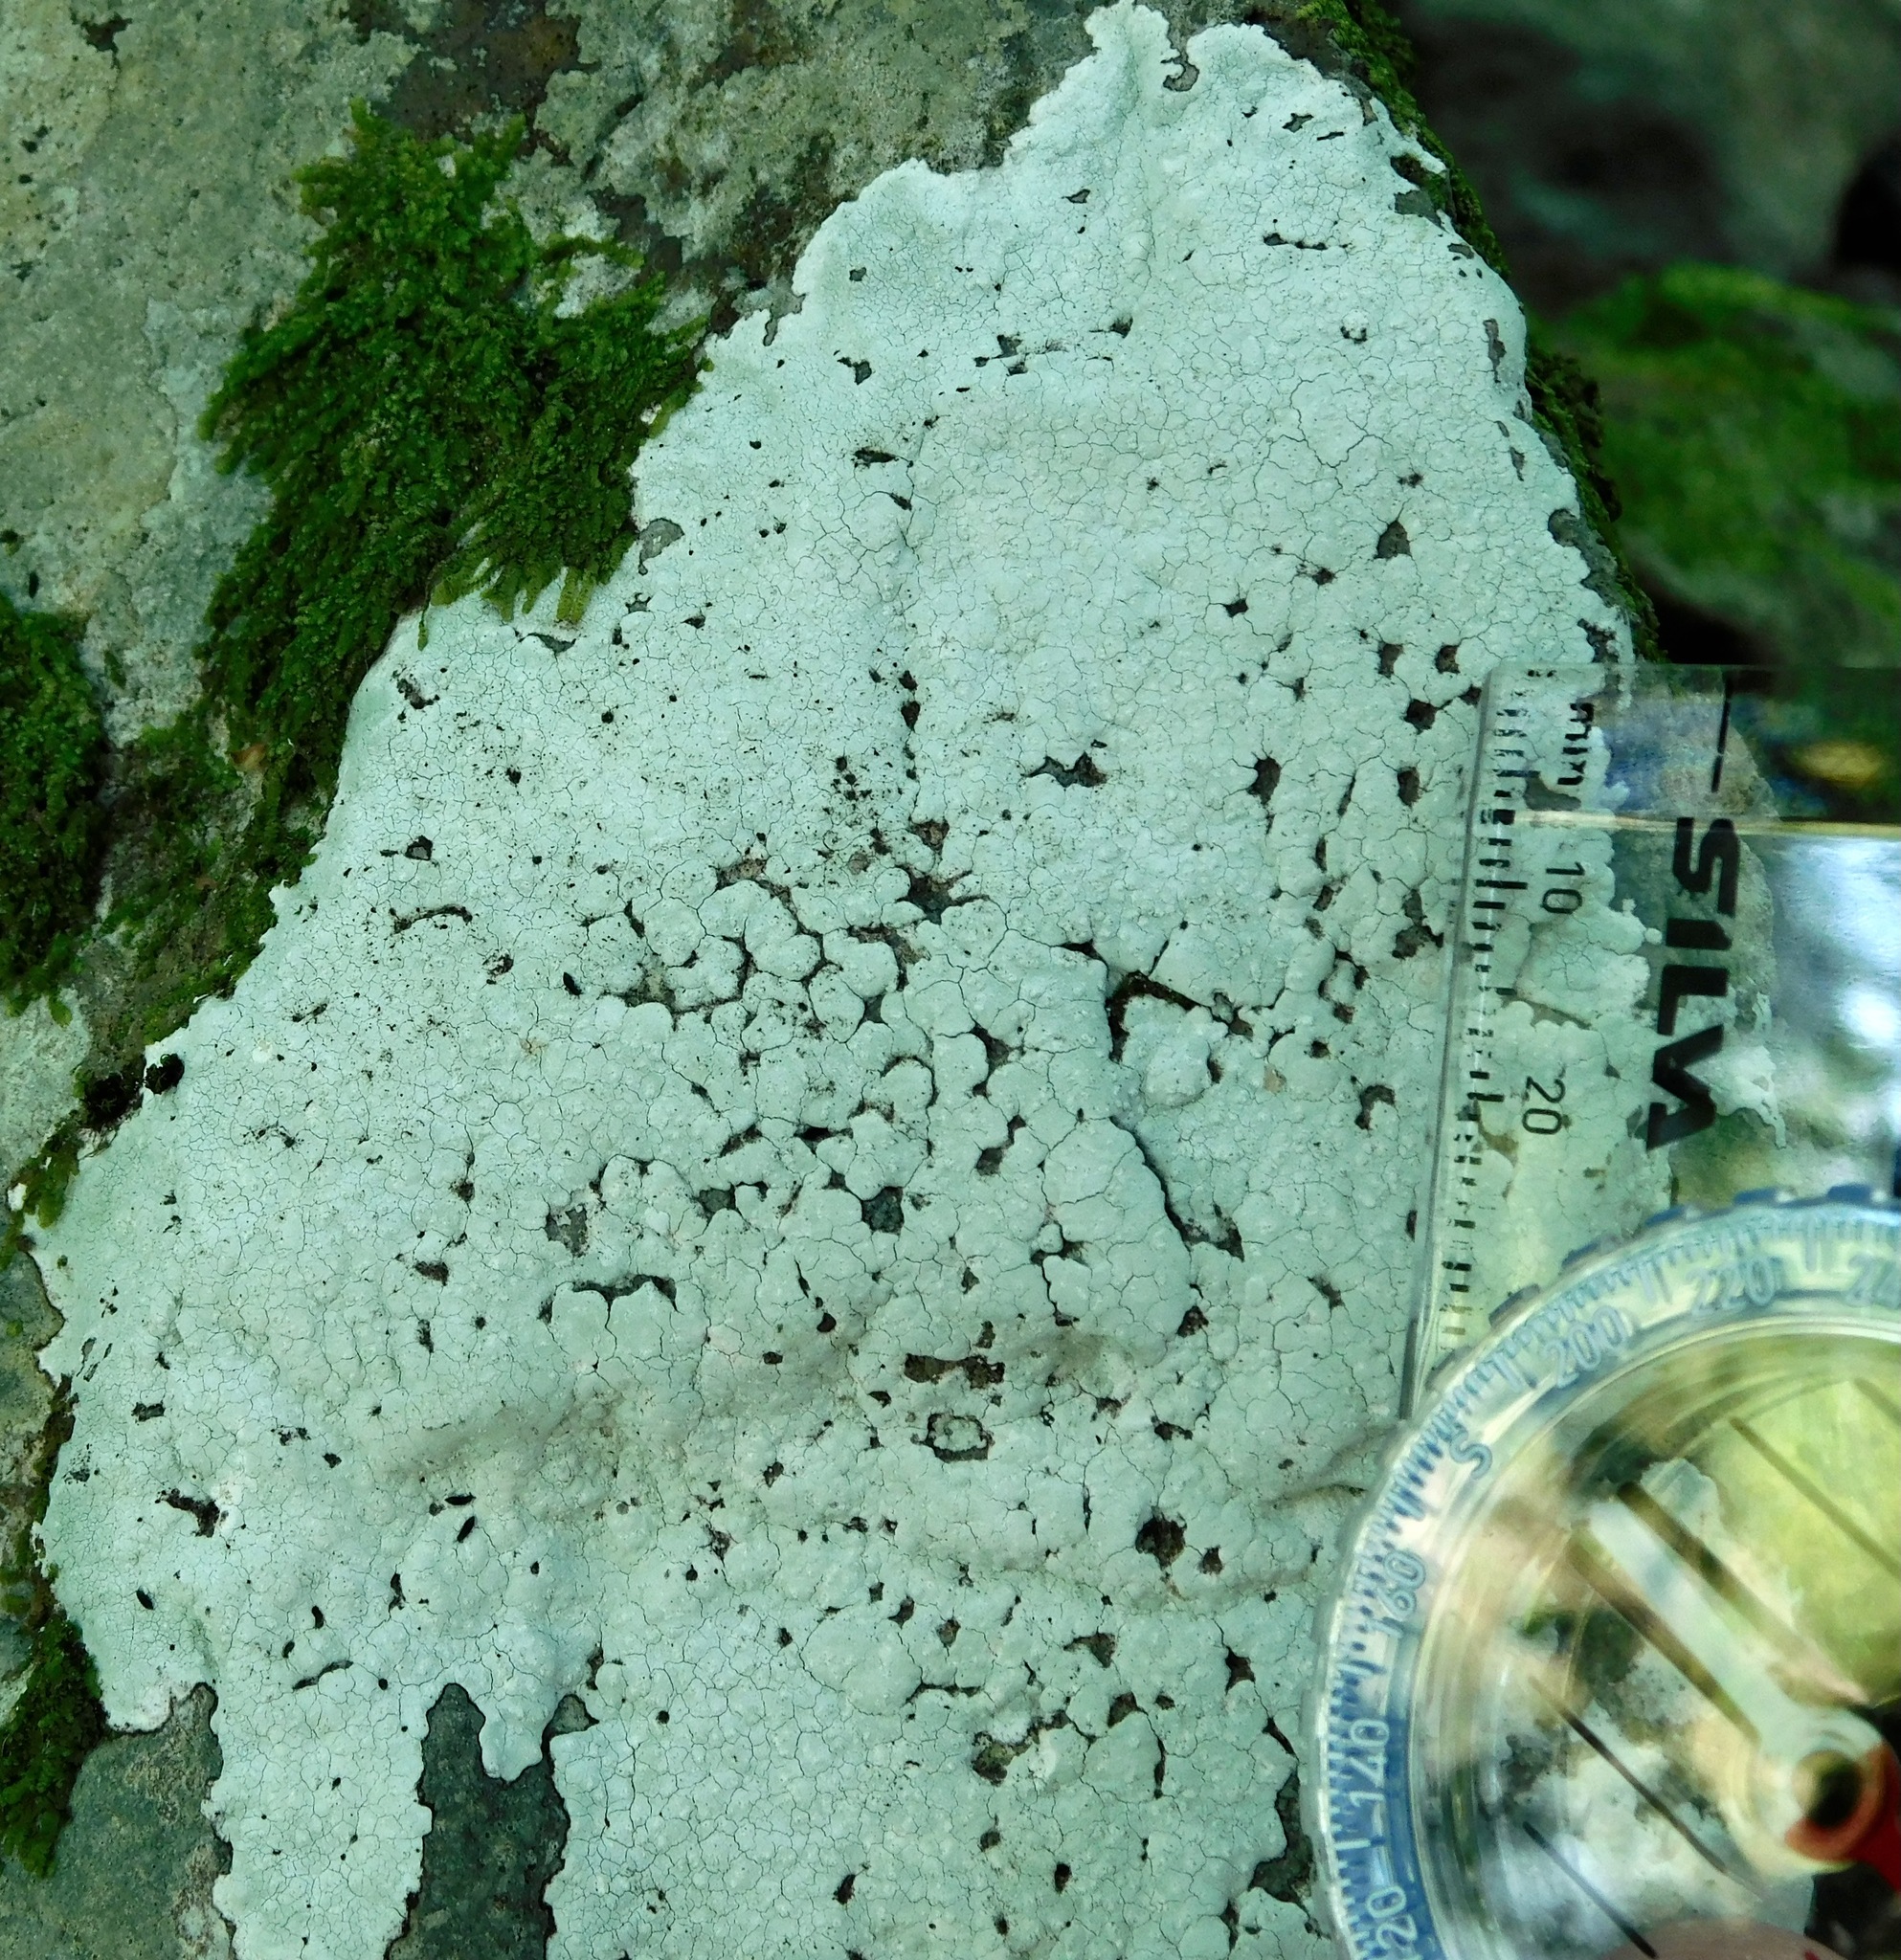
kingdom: Fungi
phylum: Ascomycota
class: Lecanoromycetes
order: Ostropales
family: Phlyctidaceae
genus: Phlyctis
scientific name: Phlyctis petraea
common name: Eggshell rock blaze
